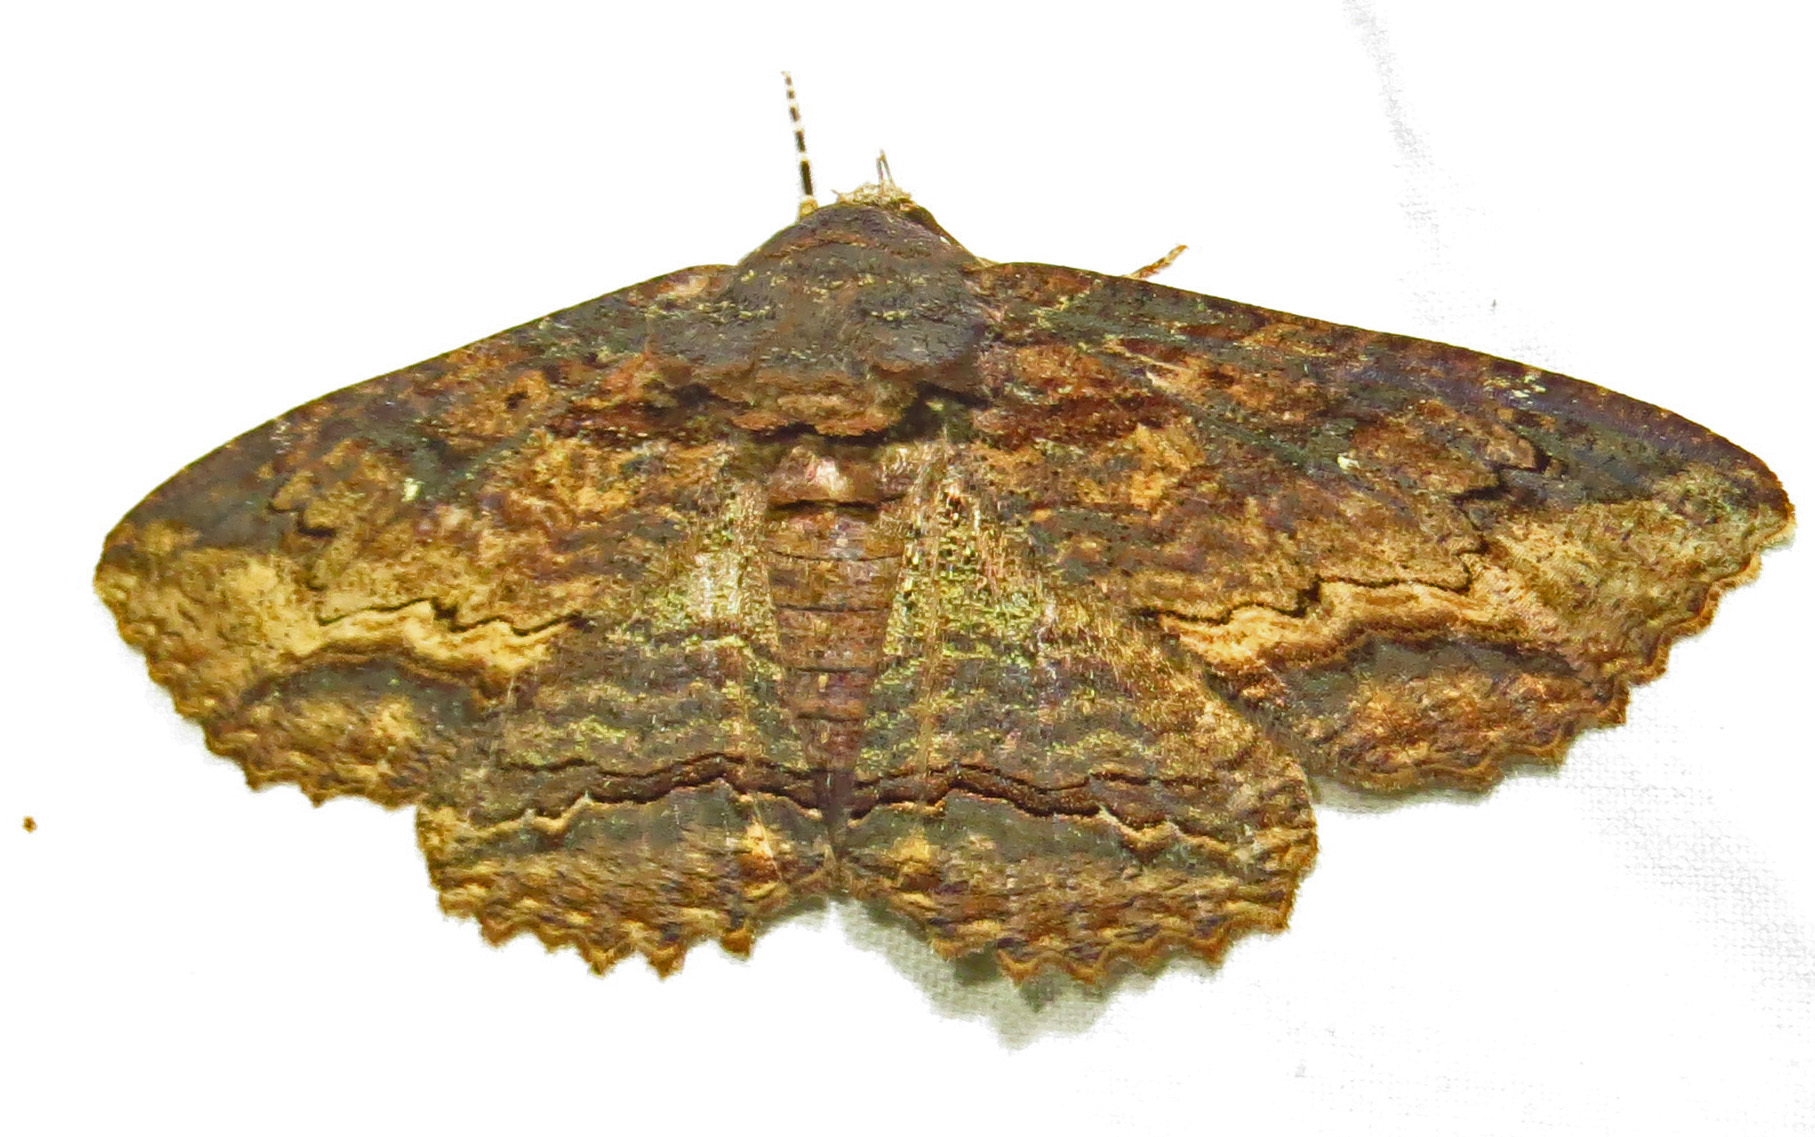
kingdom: Animalia
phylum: Arthropoda
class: Insecta
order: Lepidoptera
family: Erebidae
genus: Zale
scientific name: Zale lunata
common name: Lunate zale moth
